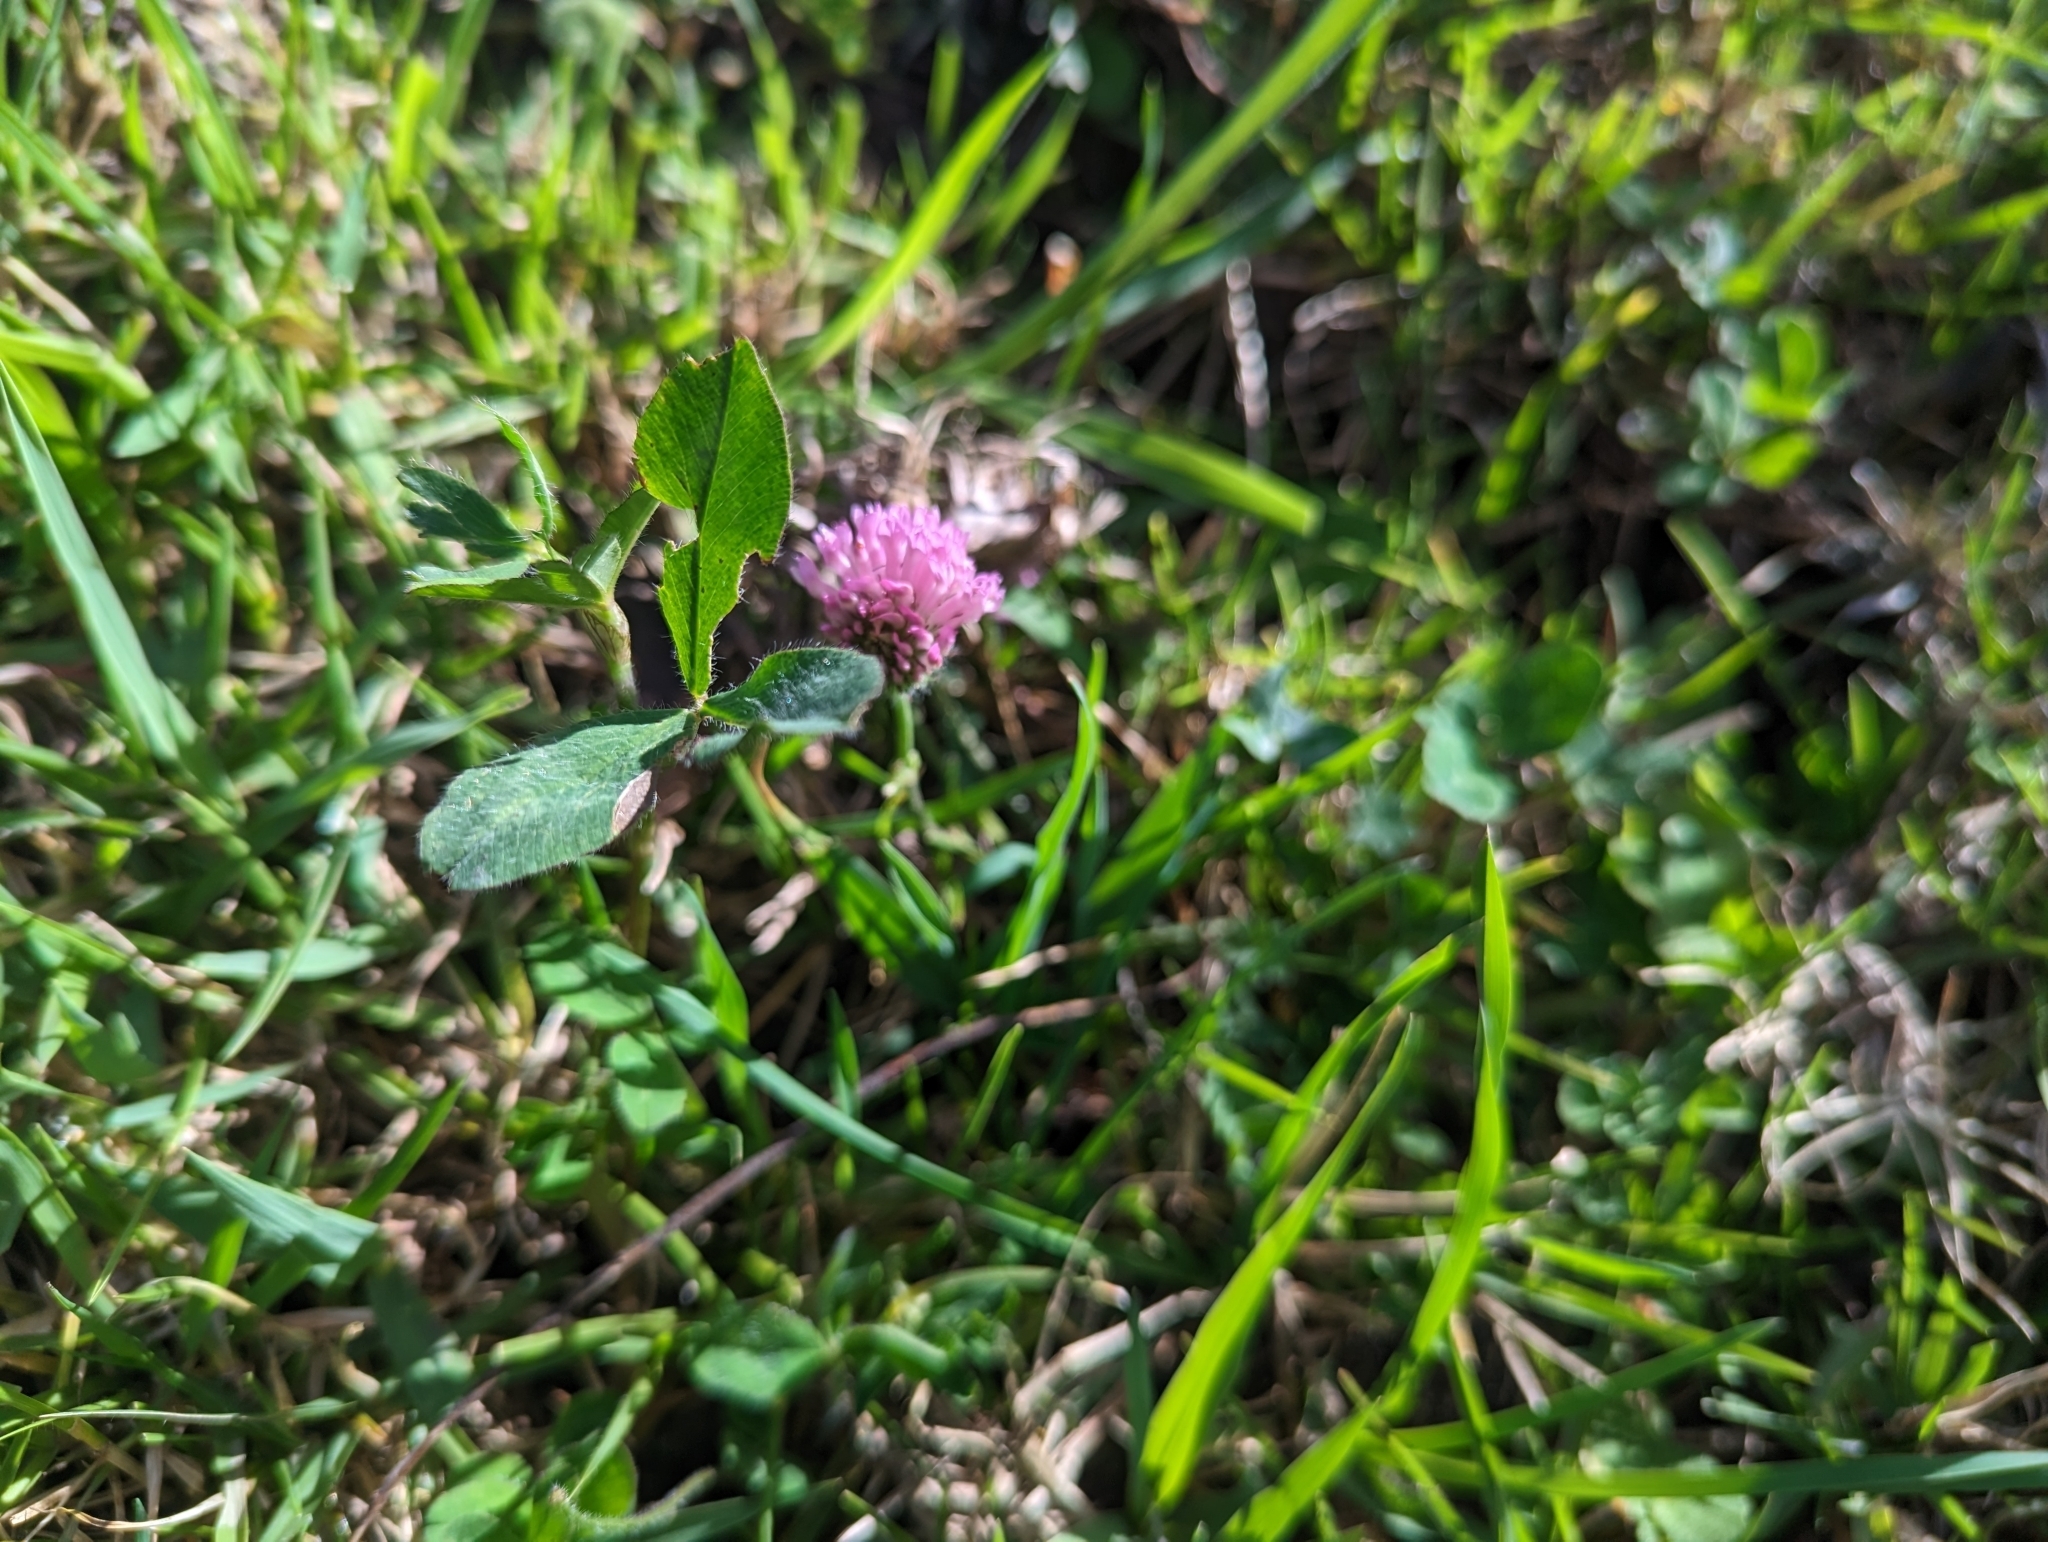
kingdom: Plantae
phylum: Tracheophyta
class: Magnoliopsida
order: Fabales
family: Fabaceae
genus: Trifolium
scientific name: Trifolium pratense
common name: Red clover
